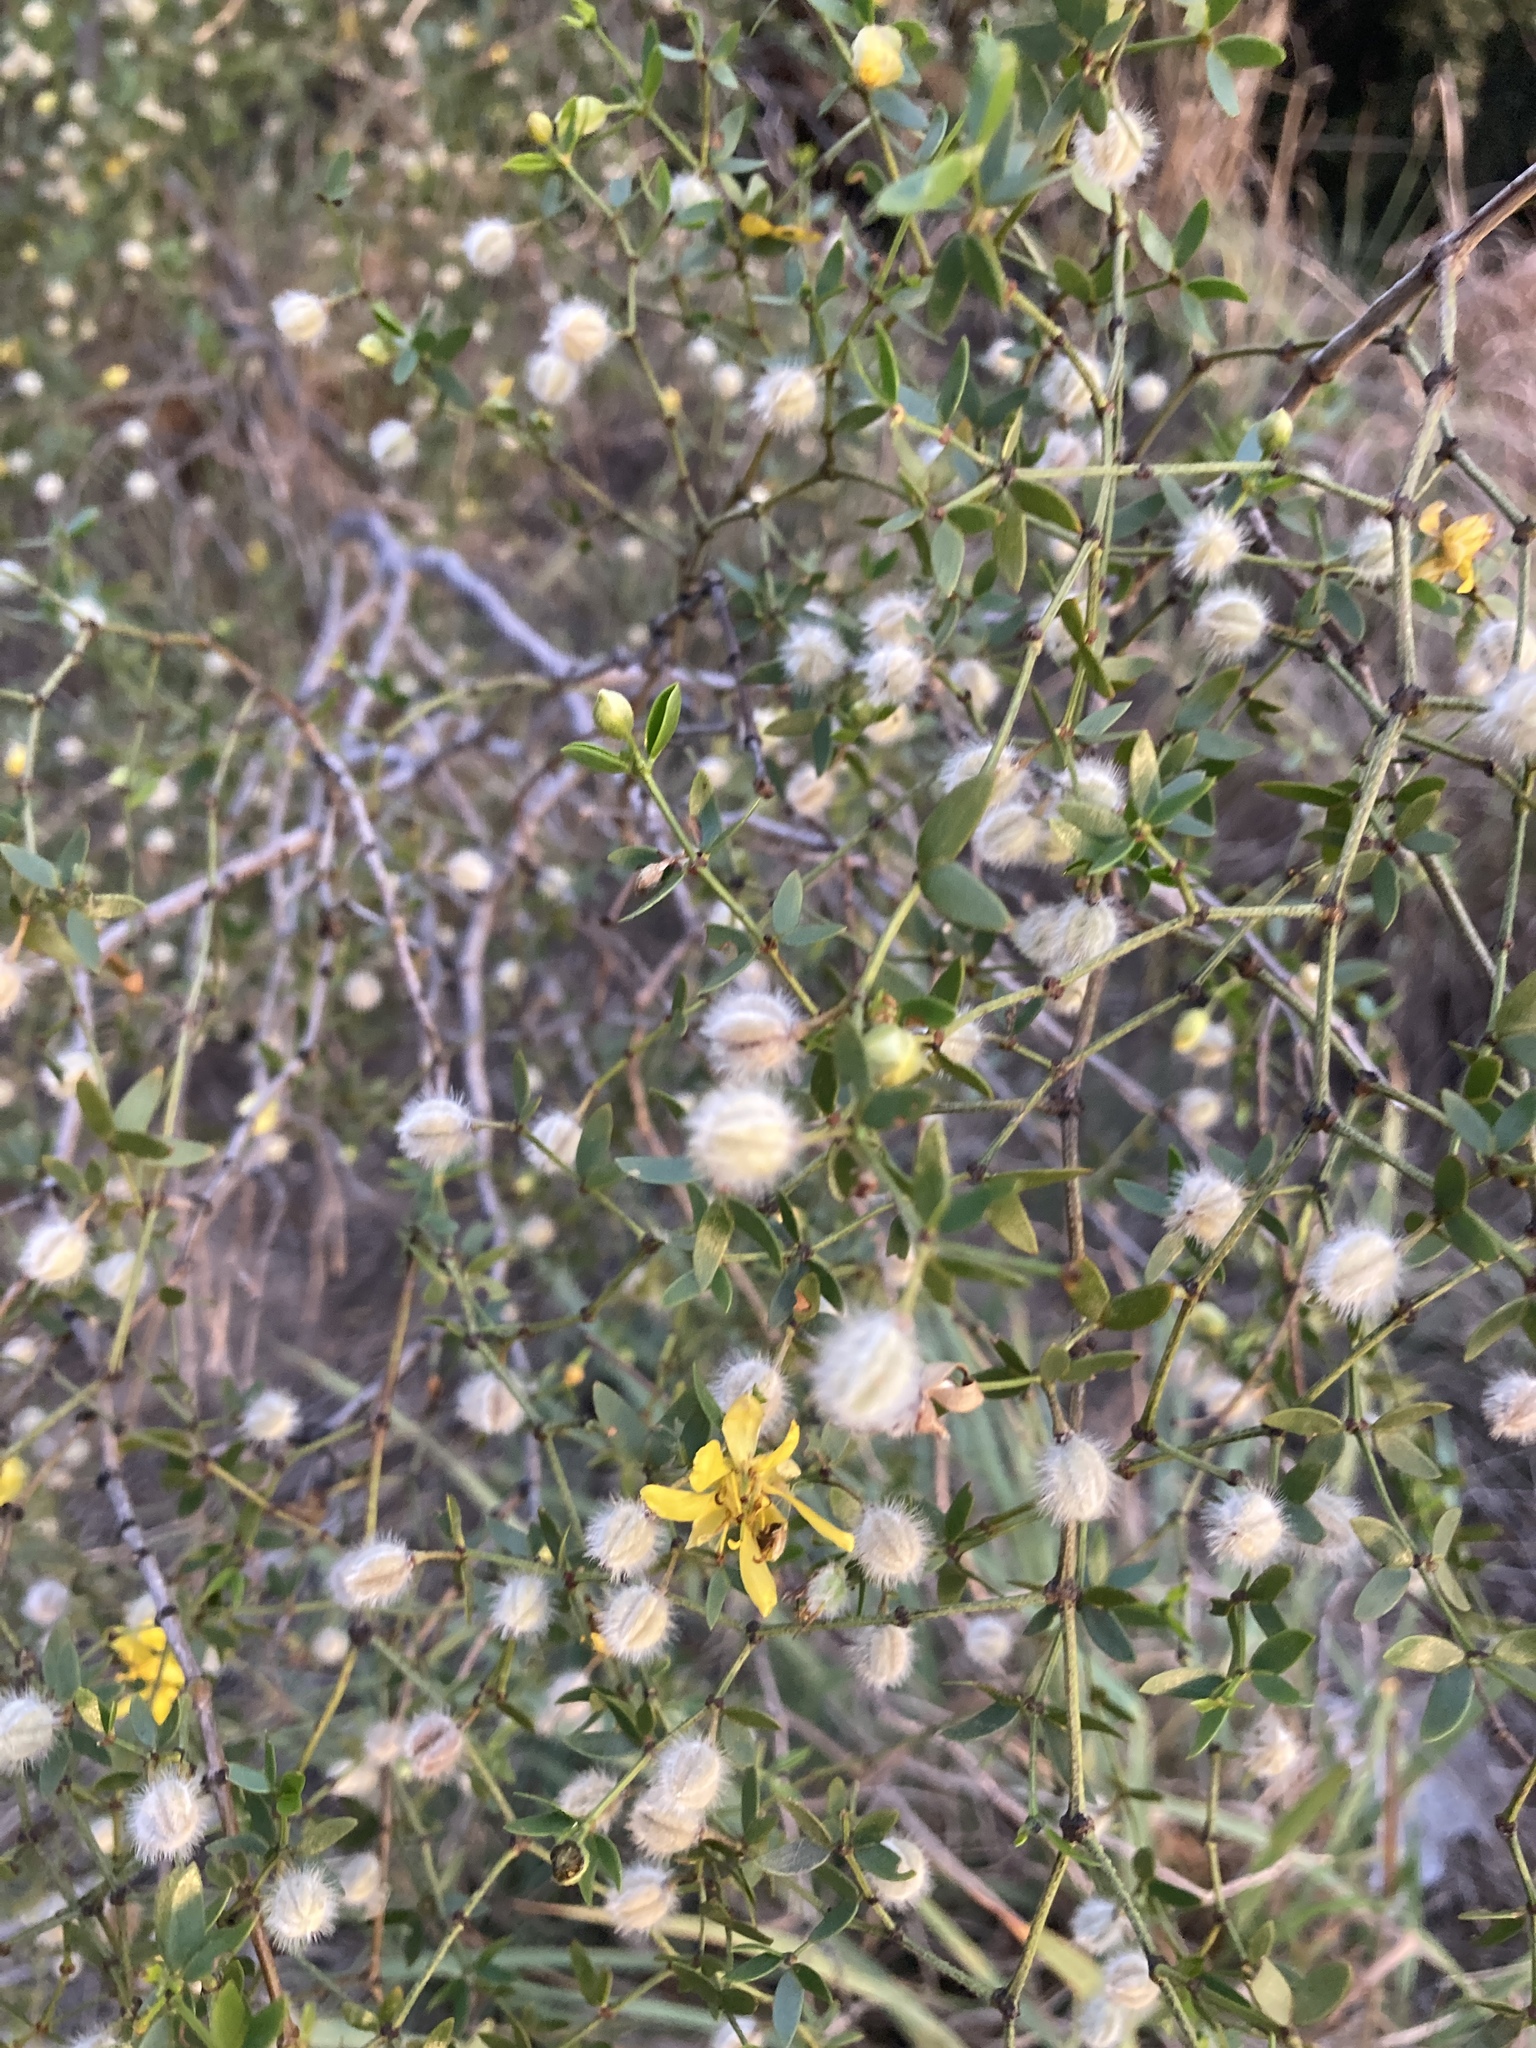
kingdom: Plantae
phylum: Tracheophyta
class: Magnoliopsida
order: Zygophyllales
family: Zygophyllaceae
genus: Larrea
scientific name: Larrea divaricata
